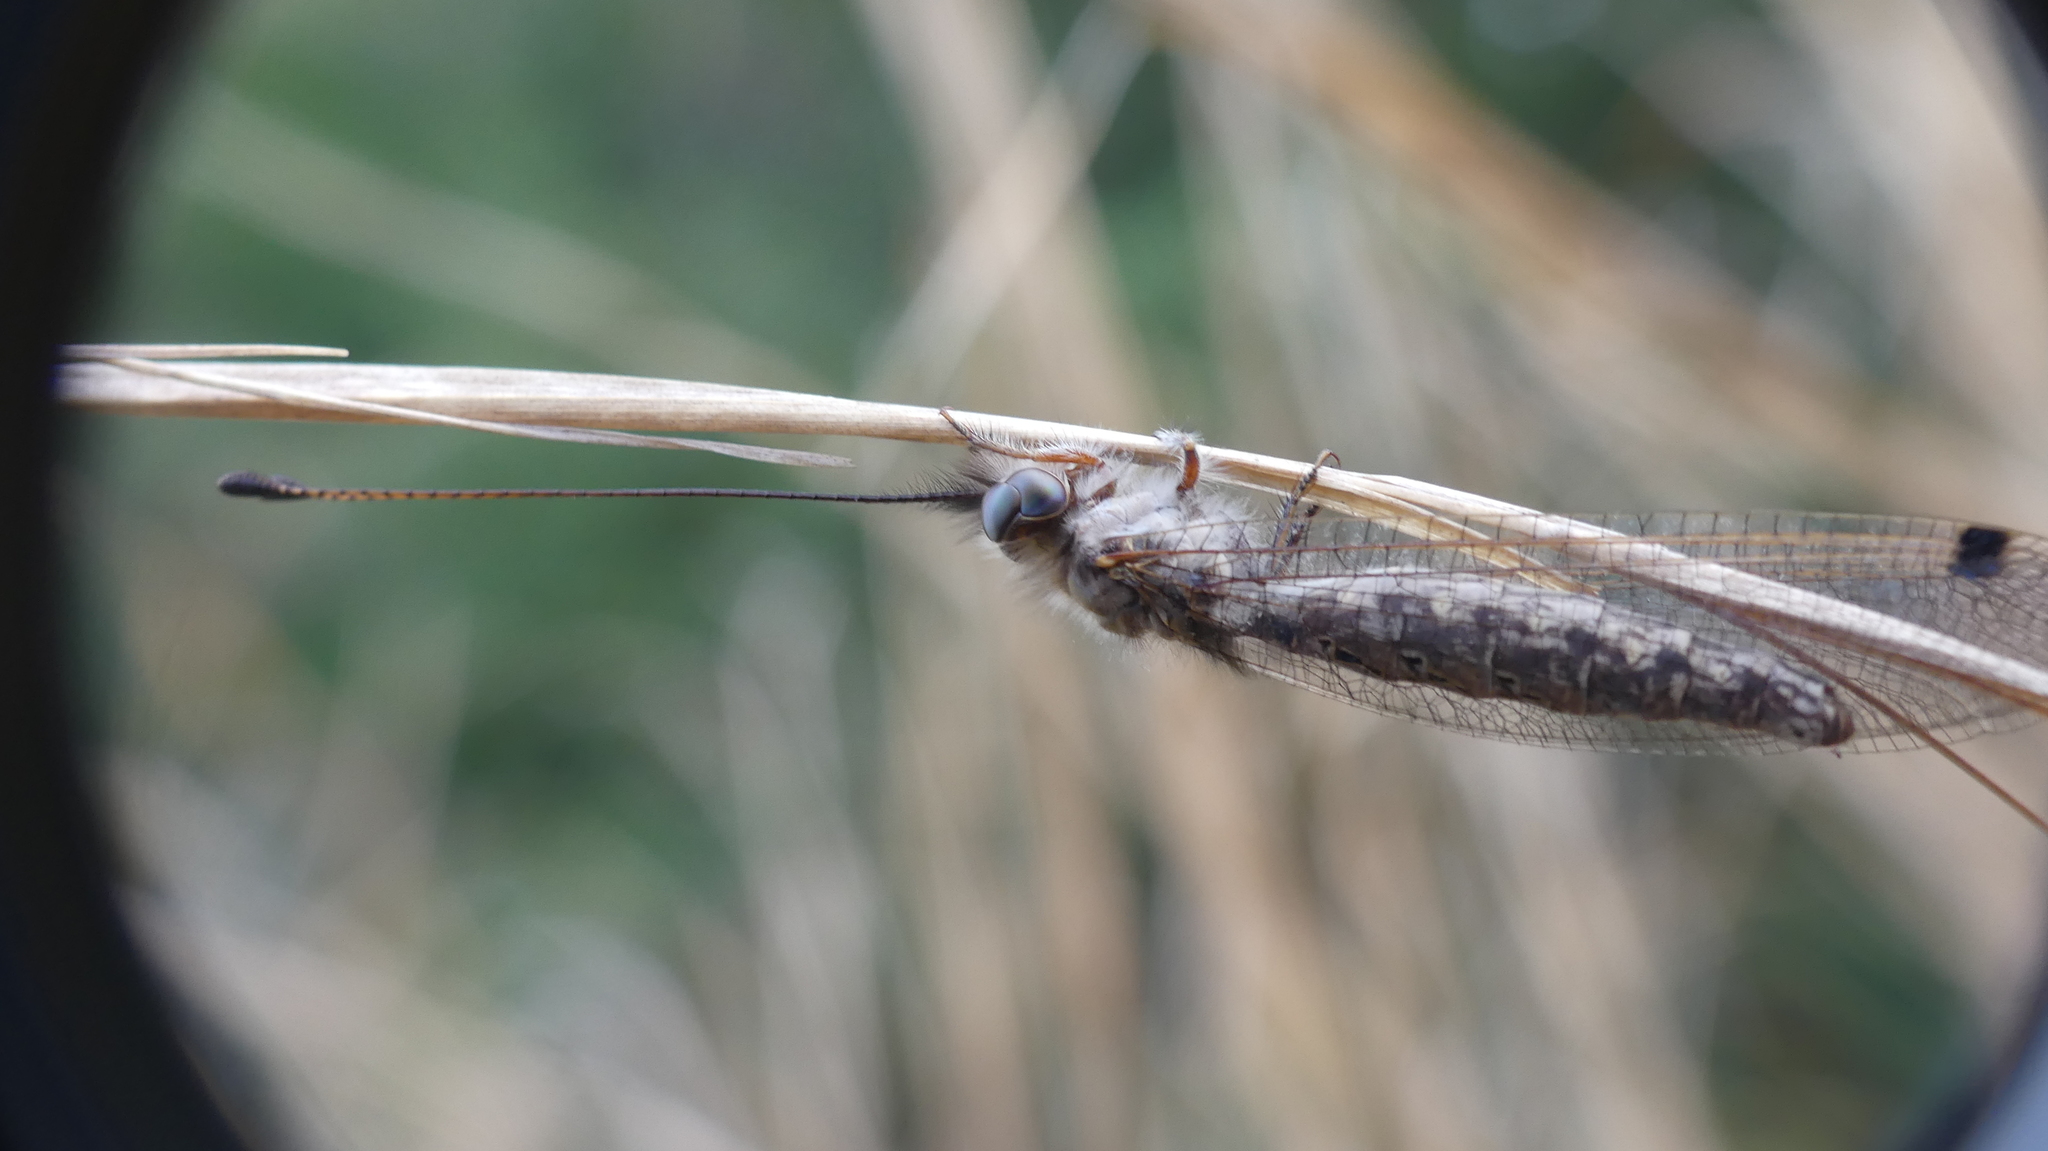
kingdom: Animalia
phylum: Arthropoda
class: Insecta
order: Neuroptera
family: Ascalaphidae
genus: Ululodes
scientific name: Ululodes macleayanus
